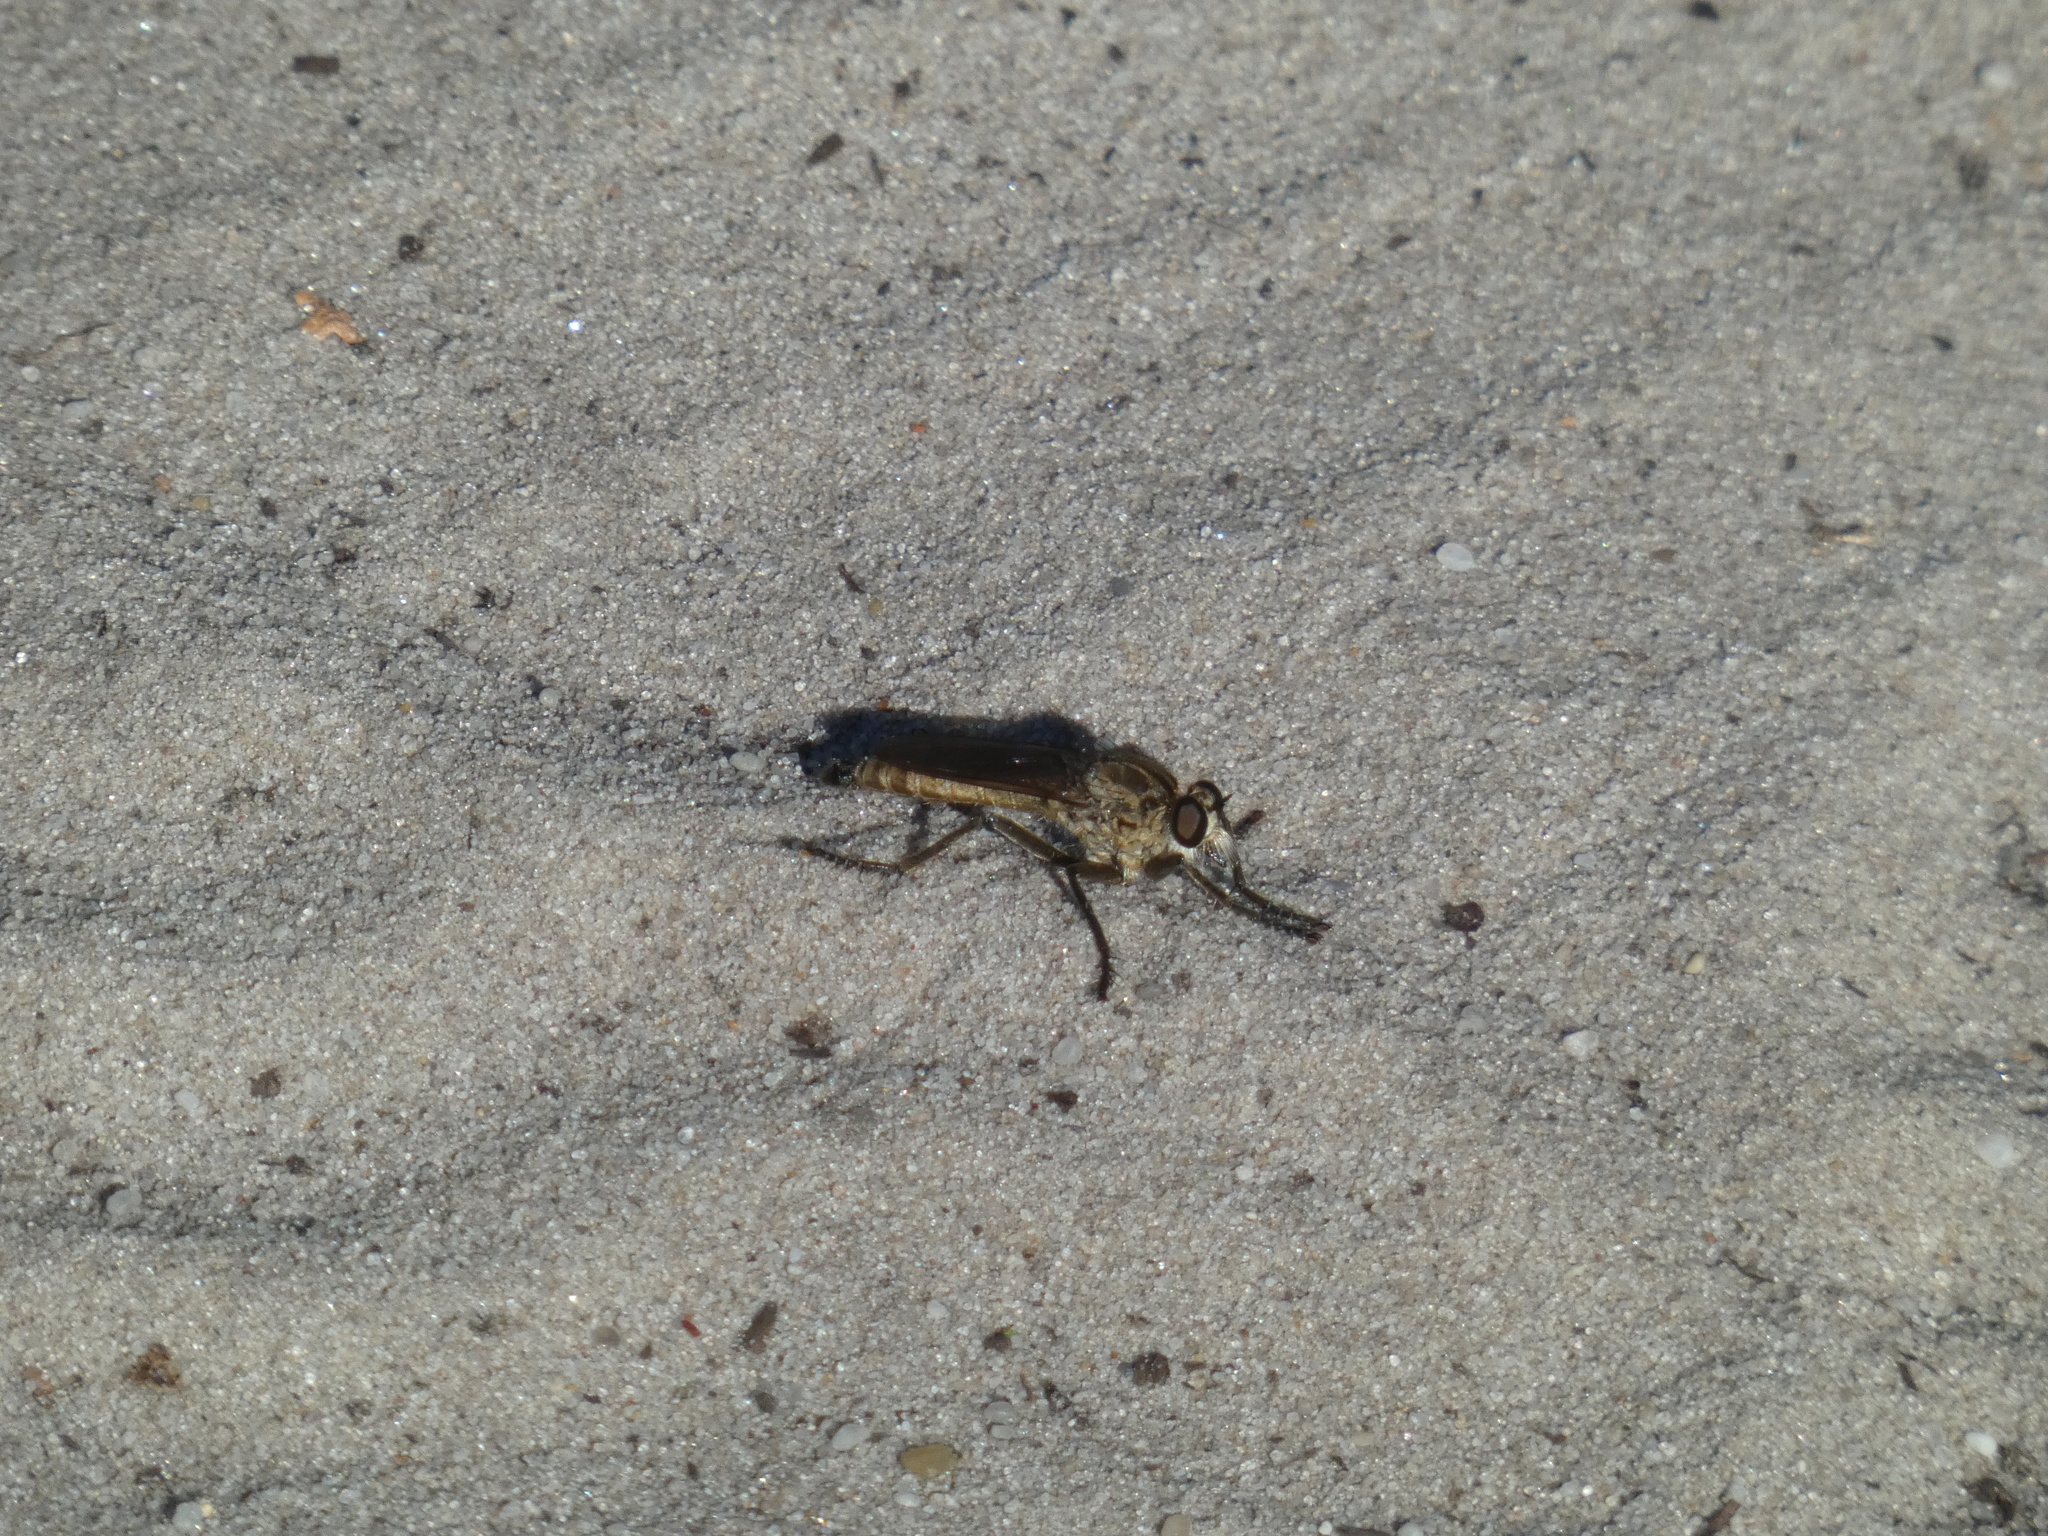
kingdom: Animalia
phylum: Arthropoda
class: Insecta
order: Diptera
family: Asilidae
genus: Philonicus
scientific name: Philonicus albiceps
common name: Dune robberfly
